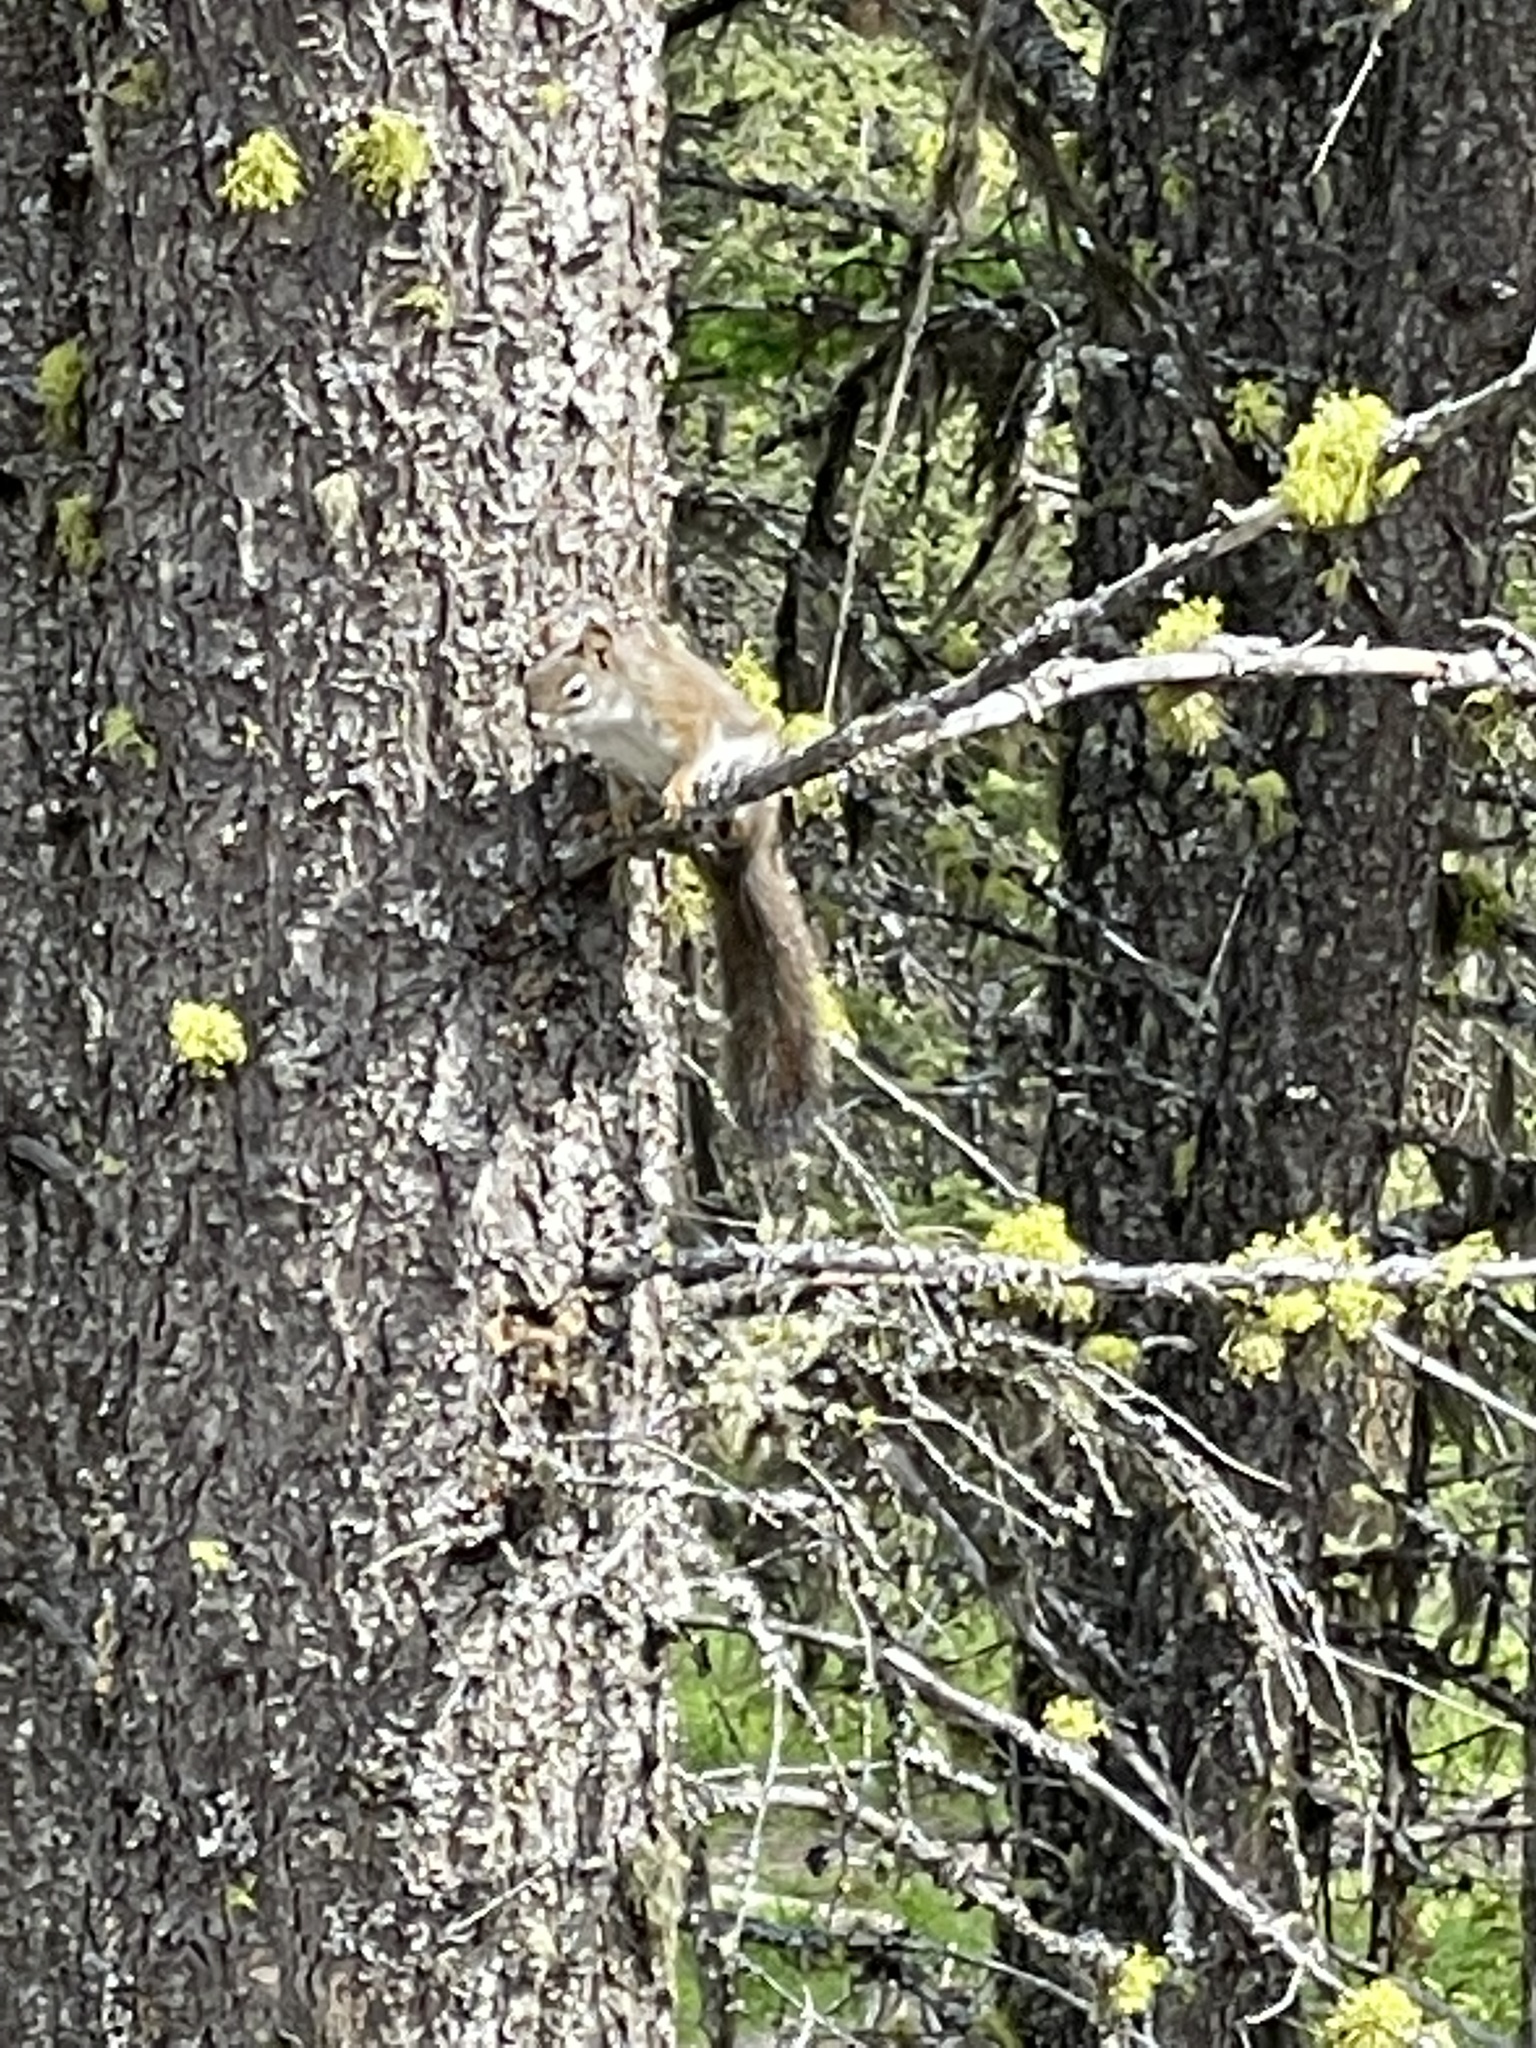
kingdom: Animalia
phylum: Chordata
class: Mammalia
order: Rodentia
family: Sciuridae
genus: Tamiasciurus
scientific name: Tamiasciurus hudsonicus
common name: Red squirrel
